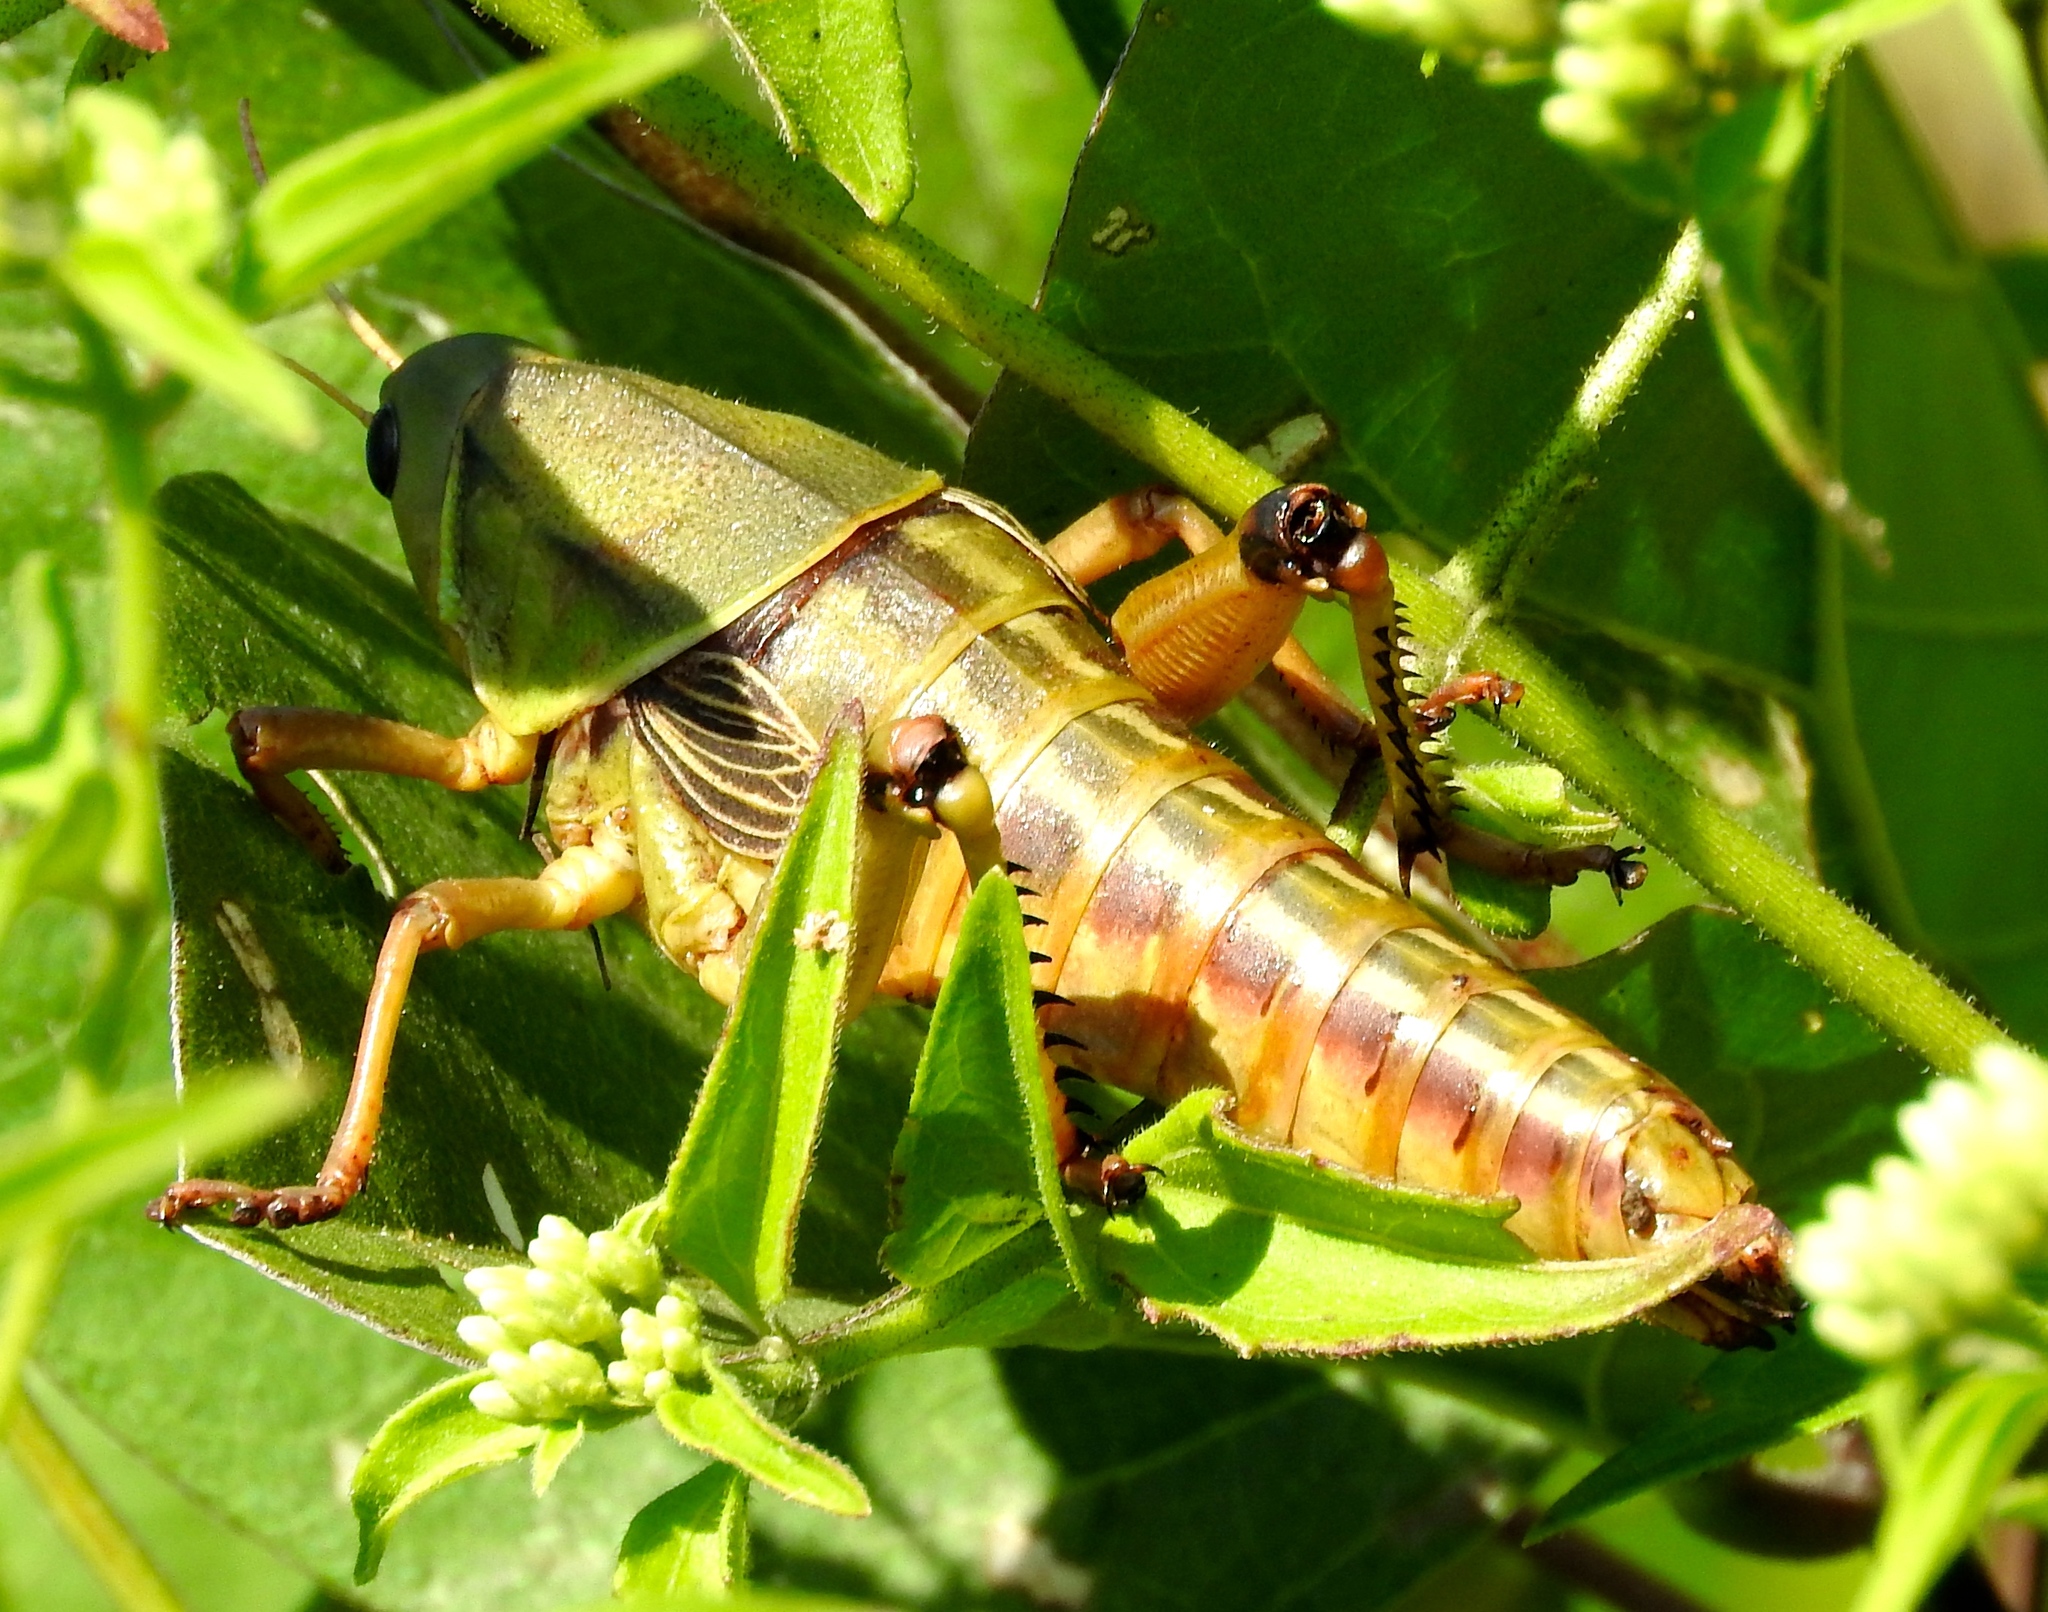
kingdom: Animalia
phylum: Arthropoda
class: Insecta
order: Orthoptera
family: Romaleidae
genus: Brachystola
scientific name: Brachystola behrensii
